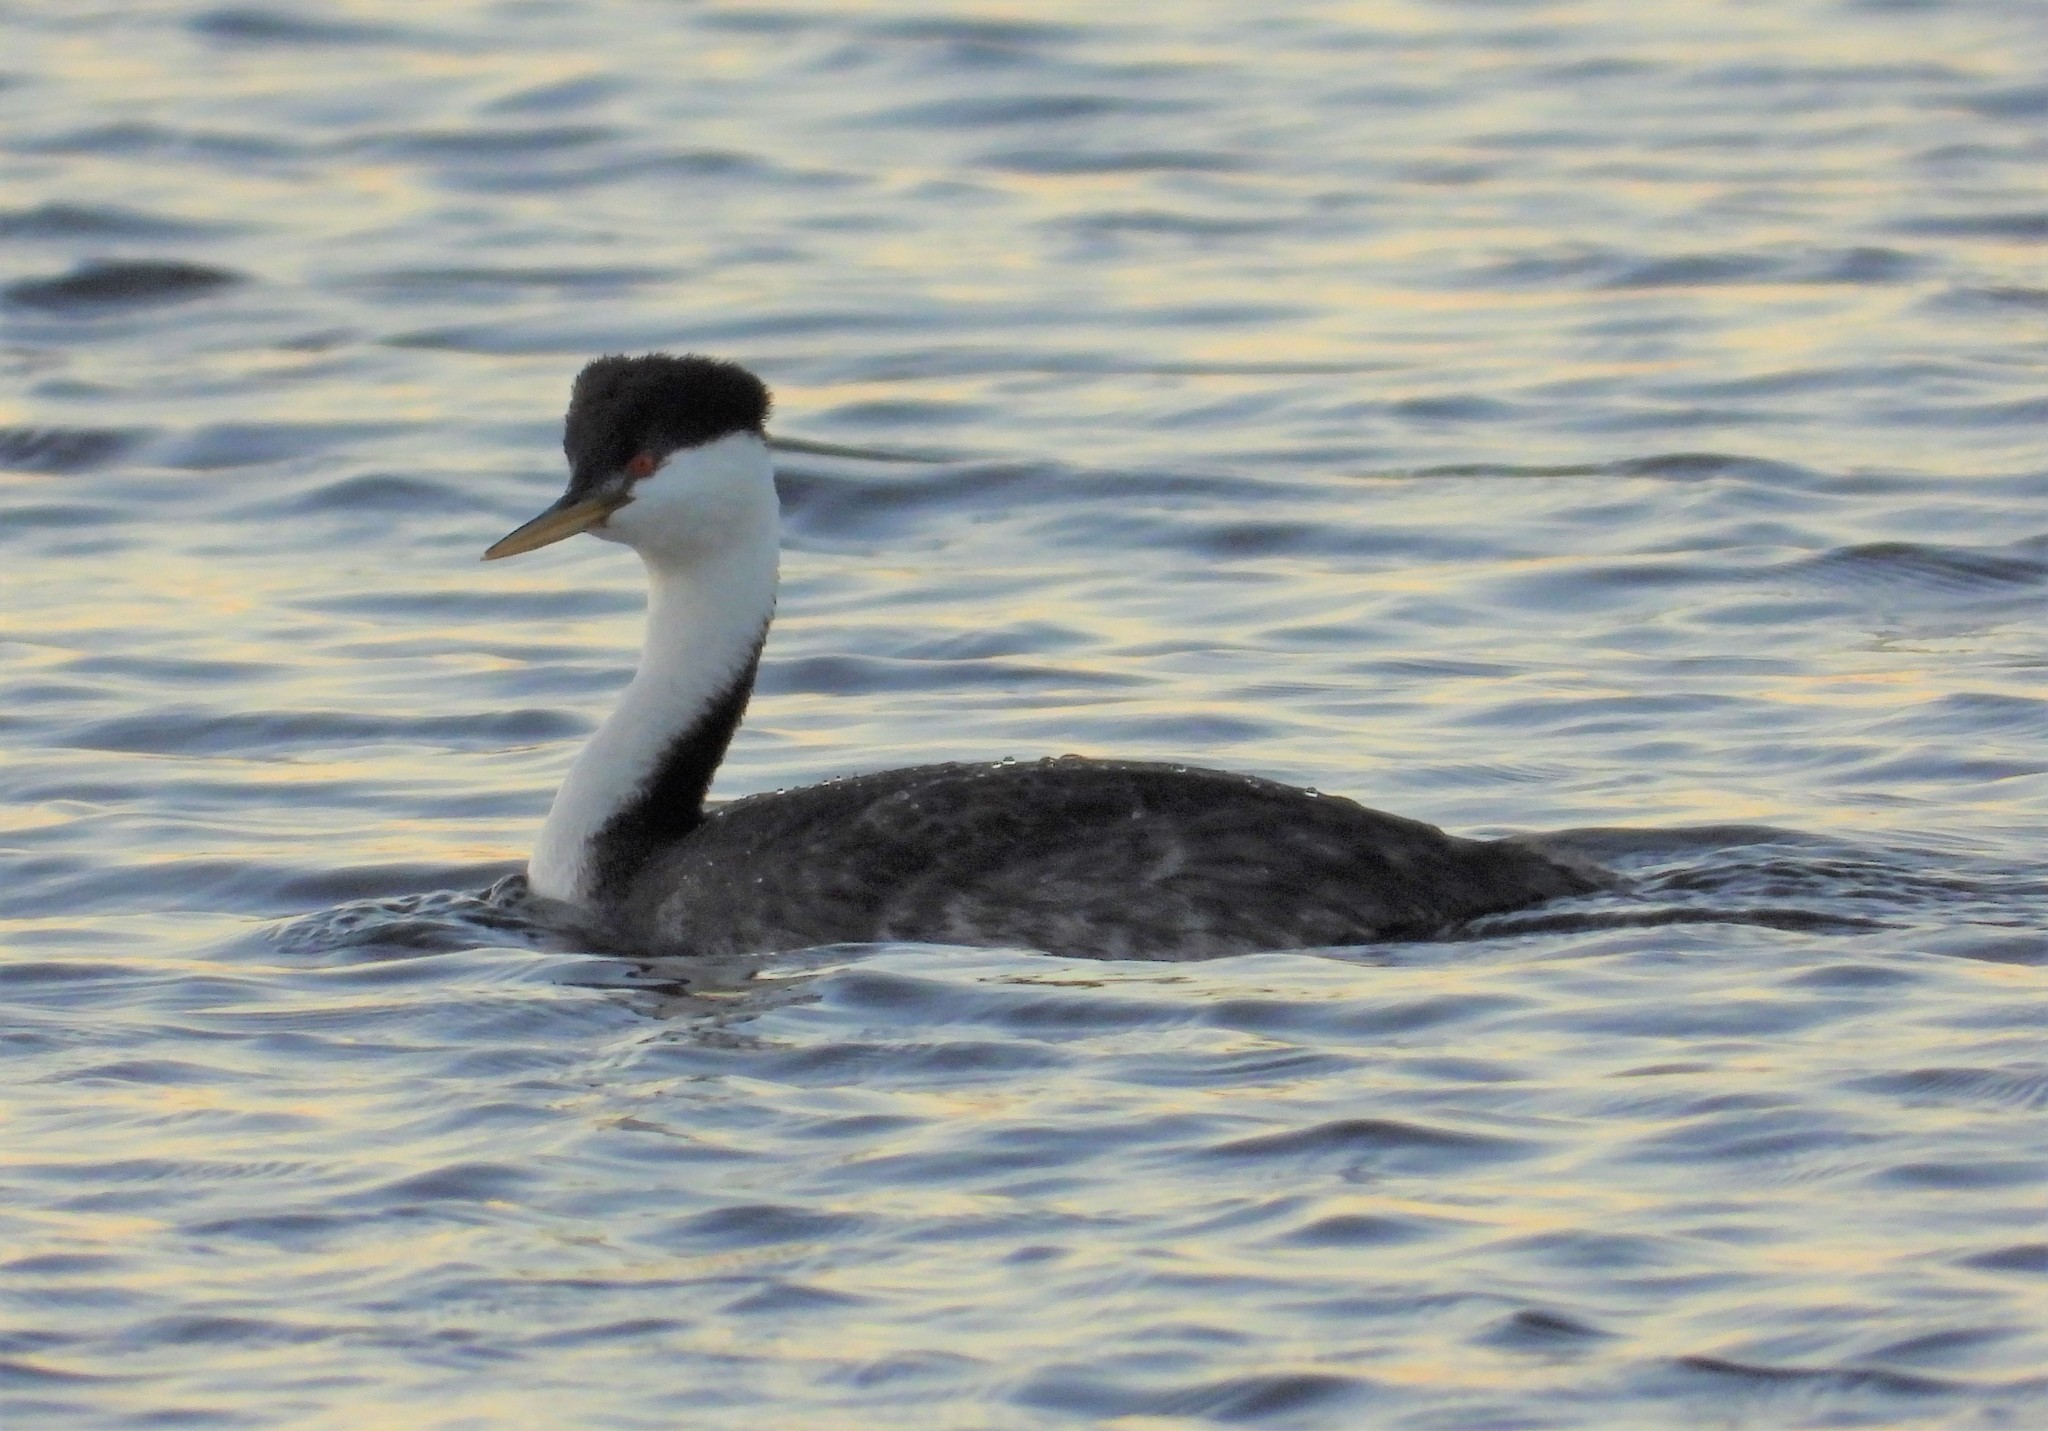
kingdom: Animalia
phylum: Chordata
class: Aves
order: Podicipediformes
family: Podicipedidae
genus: Aechmophorus
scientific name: Aechmophorus occidentalis
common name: Western grebe
